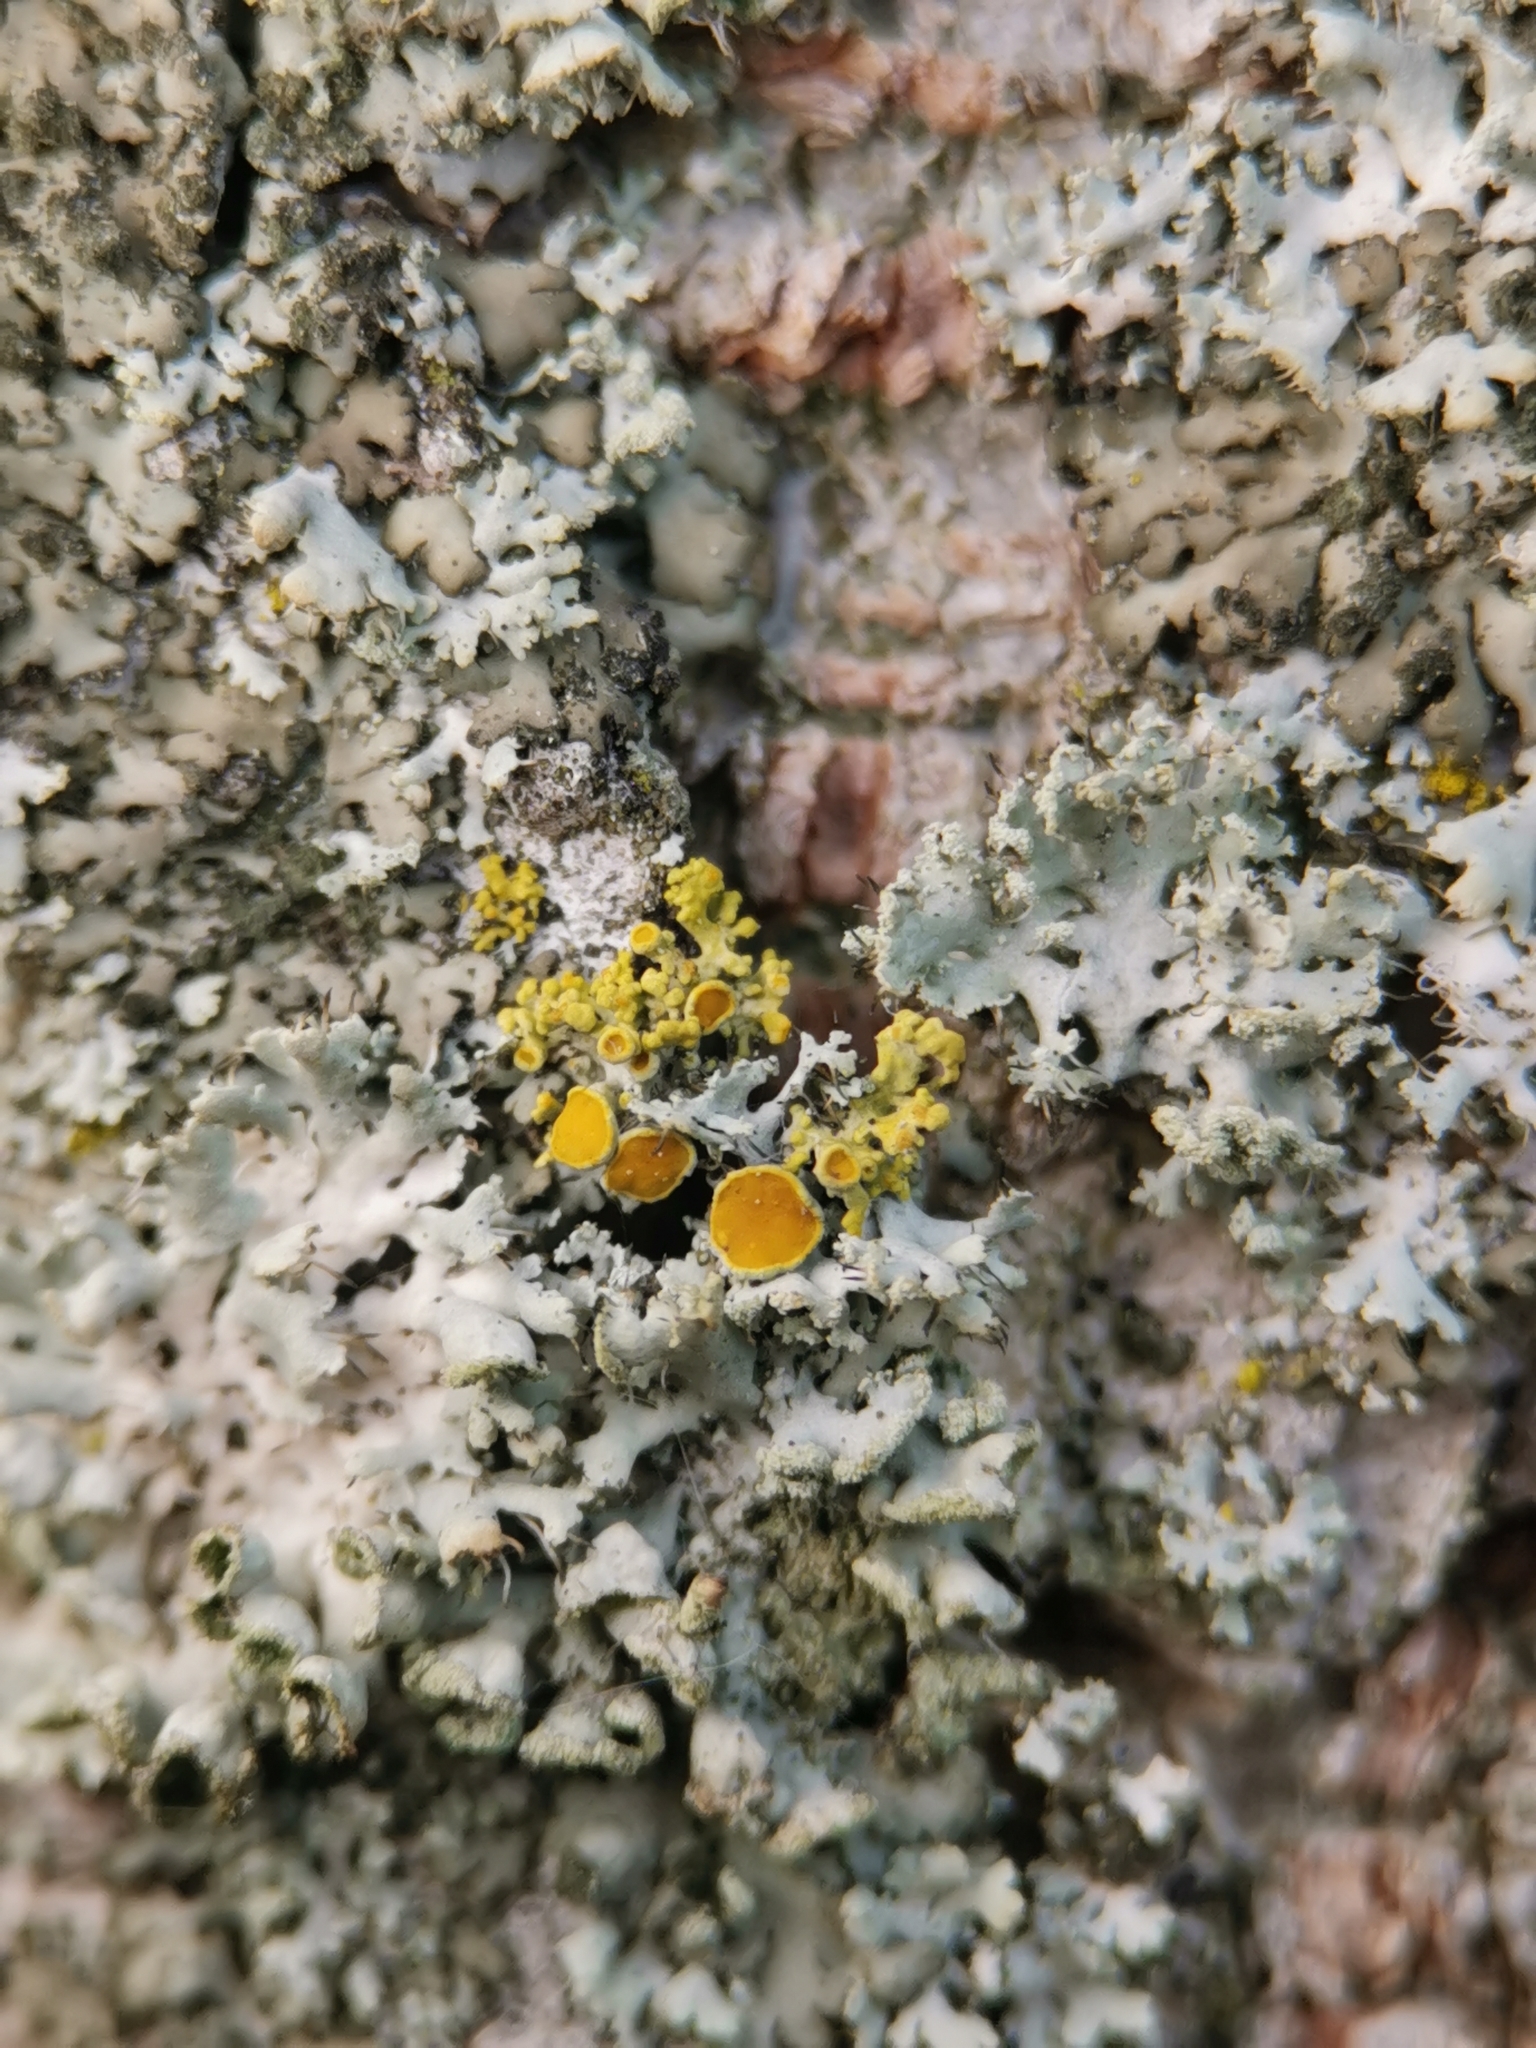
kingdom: Fungi
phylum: Ascomycota
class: Lecanoromycetes
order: Teloschistales
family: Teloschistaceae
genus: Polycauliona
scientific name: Polycauliona polycarpa
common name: Pin-cushion sunburst lichen
